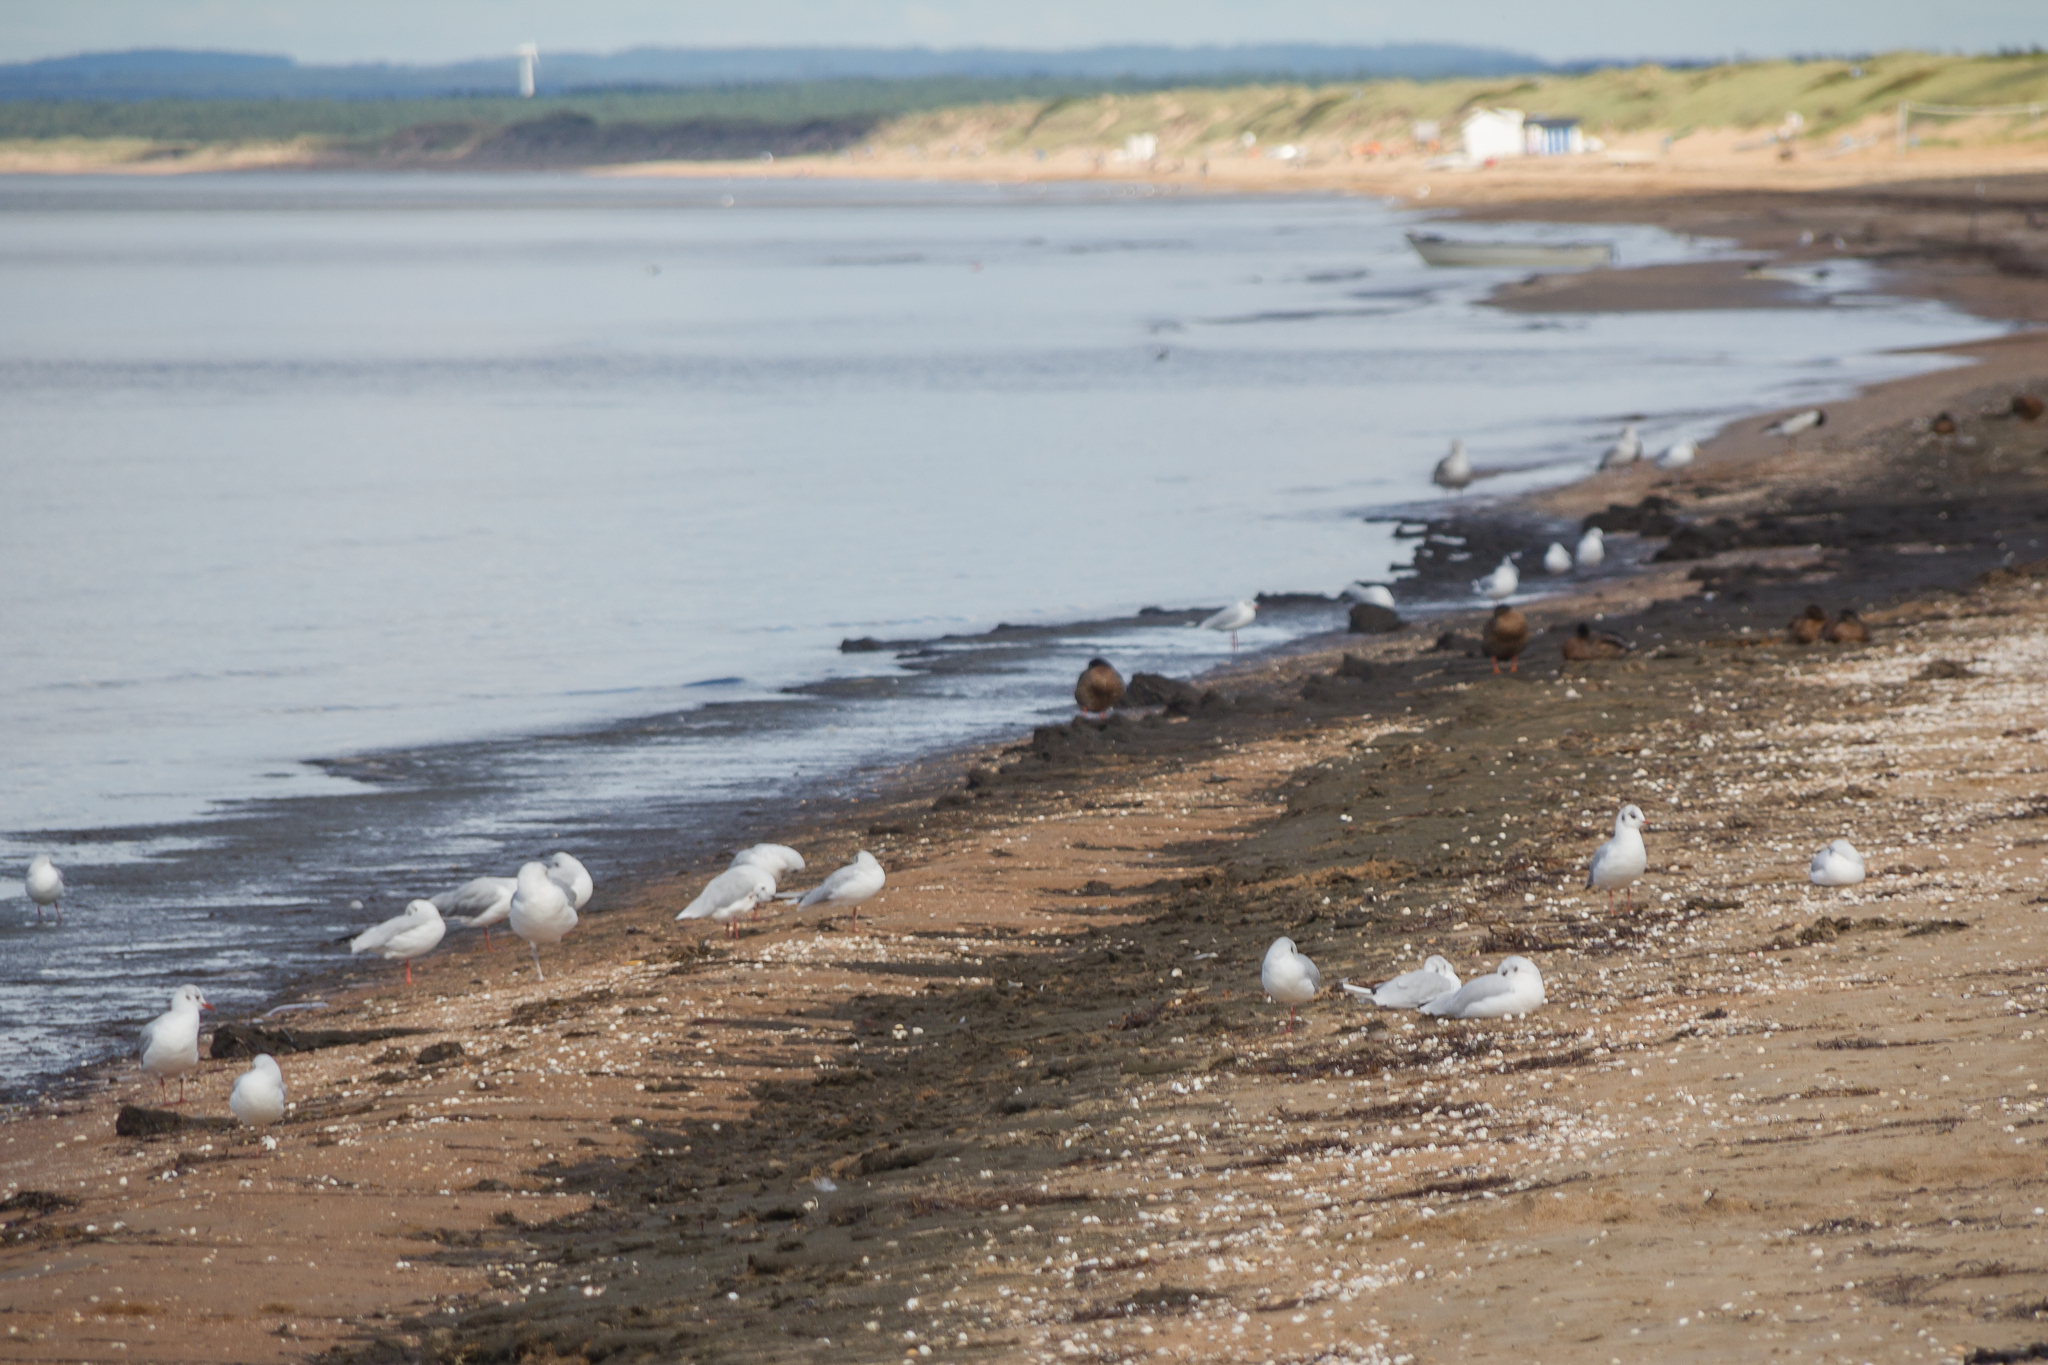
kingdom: Animalia
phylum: Chordata
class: Aves
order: Charadriiformes
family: Laridae
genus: Chroicocephalus
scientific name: Chroicocephalus ridibundus
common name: Black-headed gull
